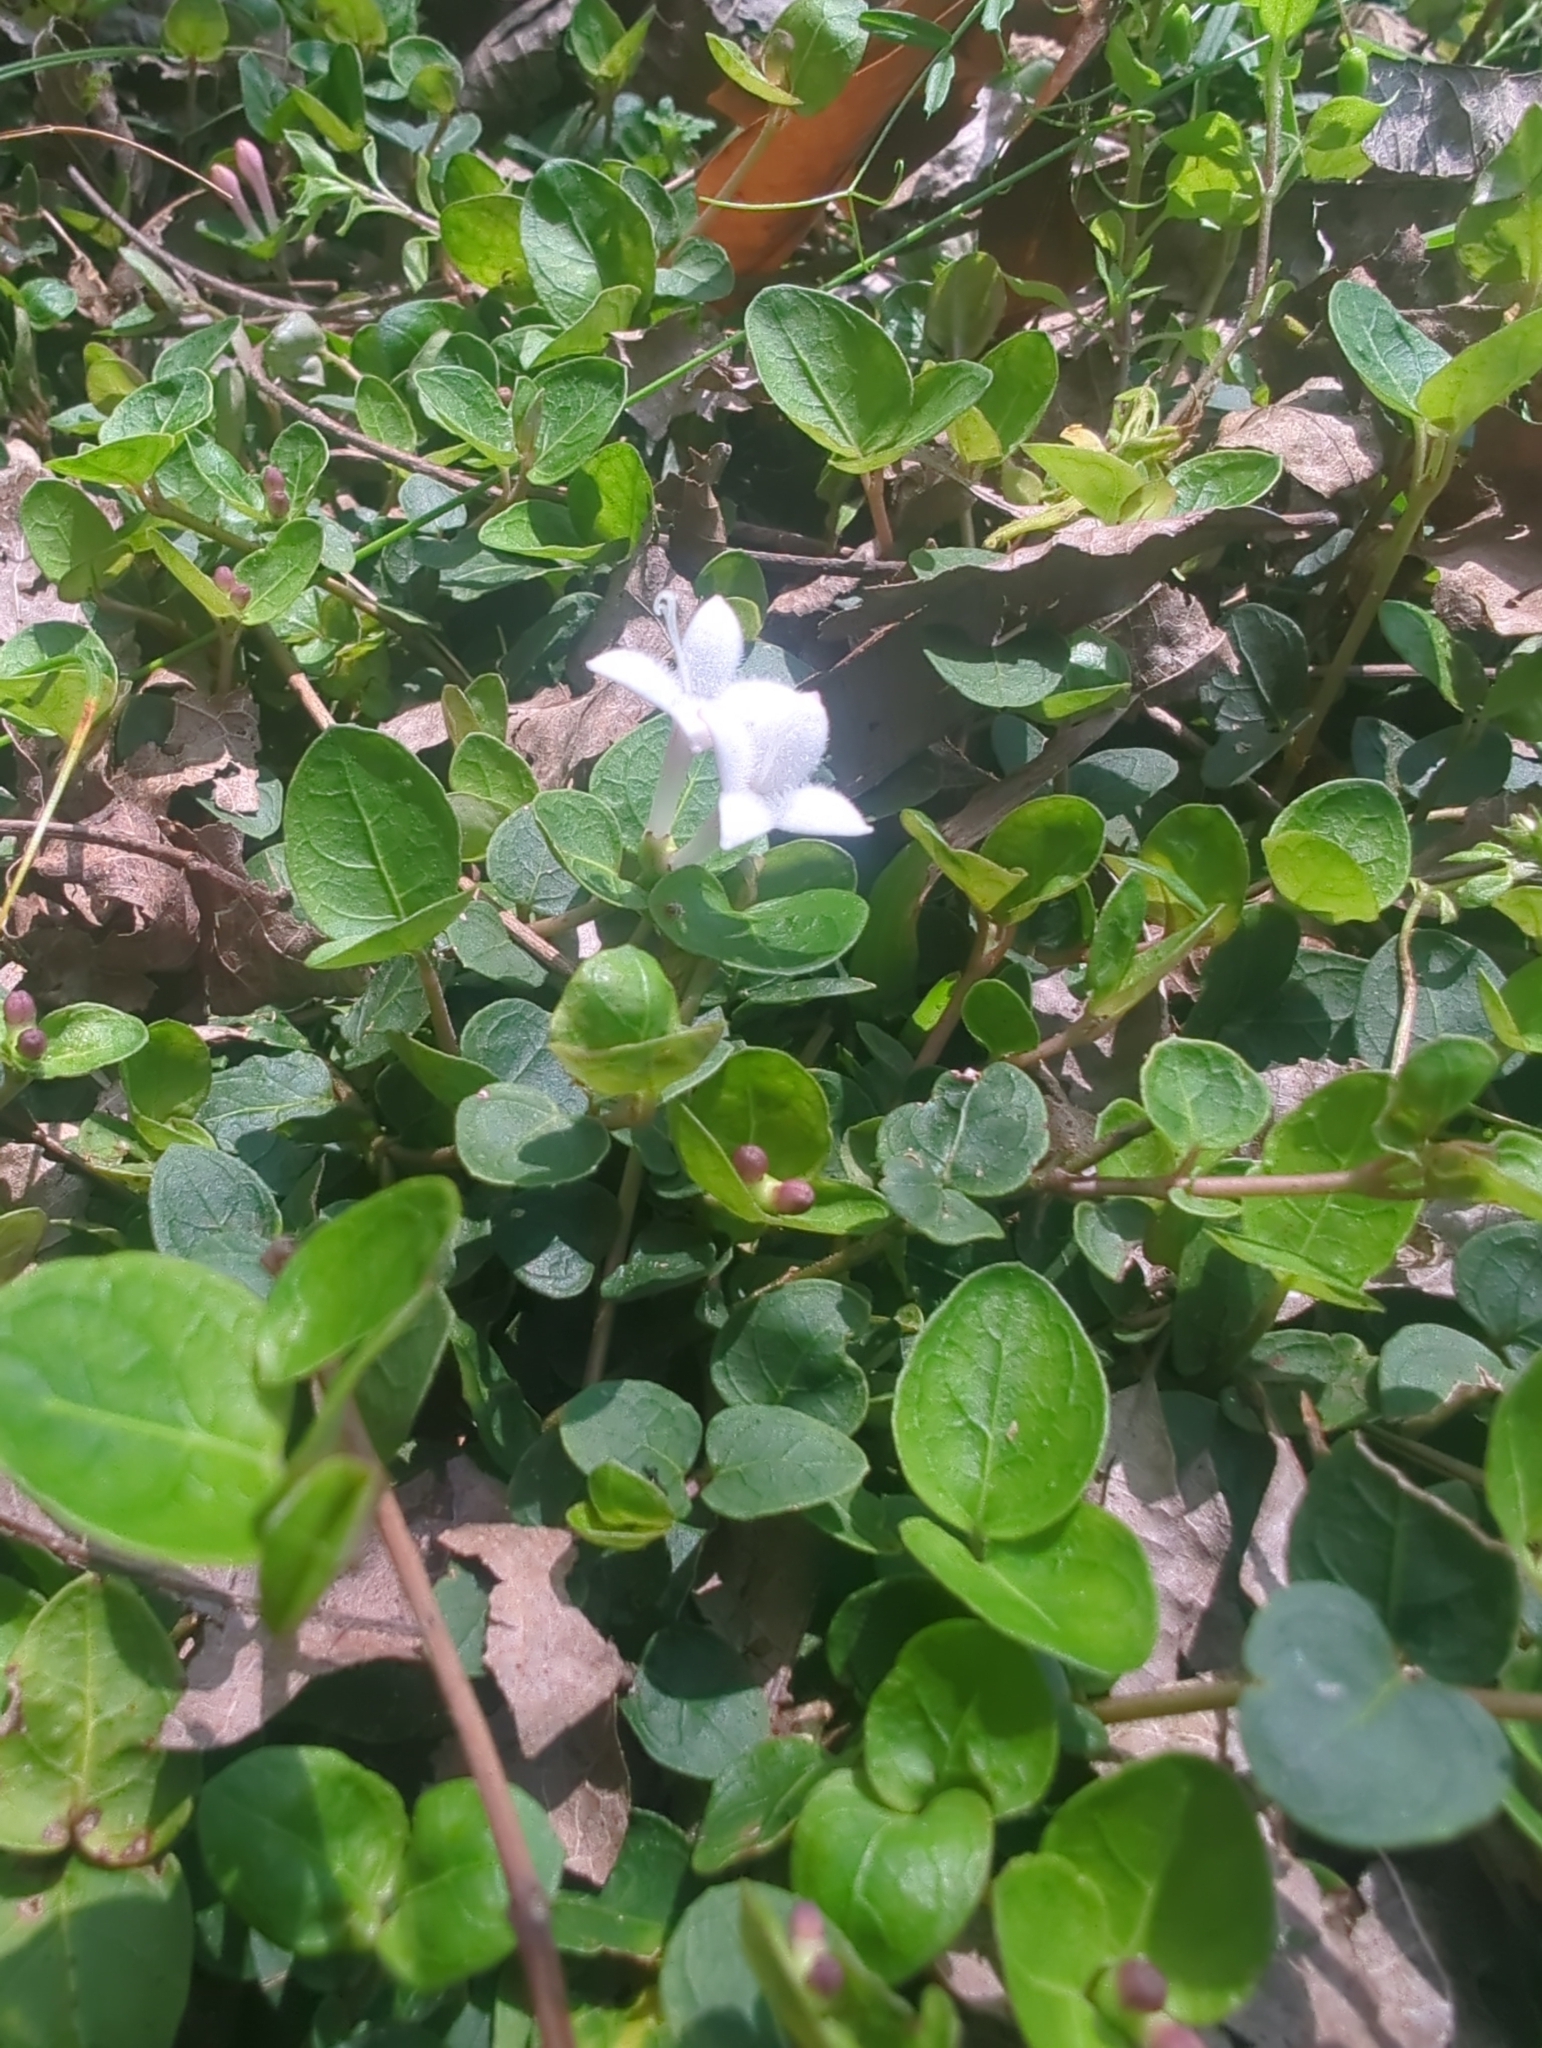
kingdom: Plantae
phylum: Tracheophyta
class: Magnoliopsida
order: Gentianales
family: Rubiaceae
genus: Mitchella
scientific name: Mitchella repens
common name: Partridge-berry
